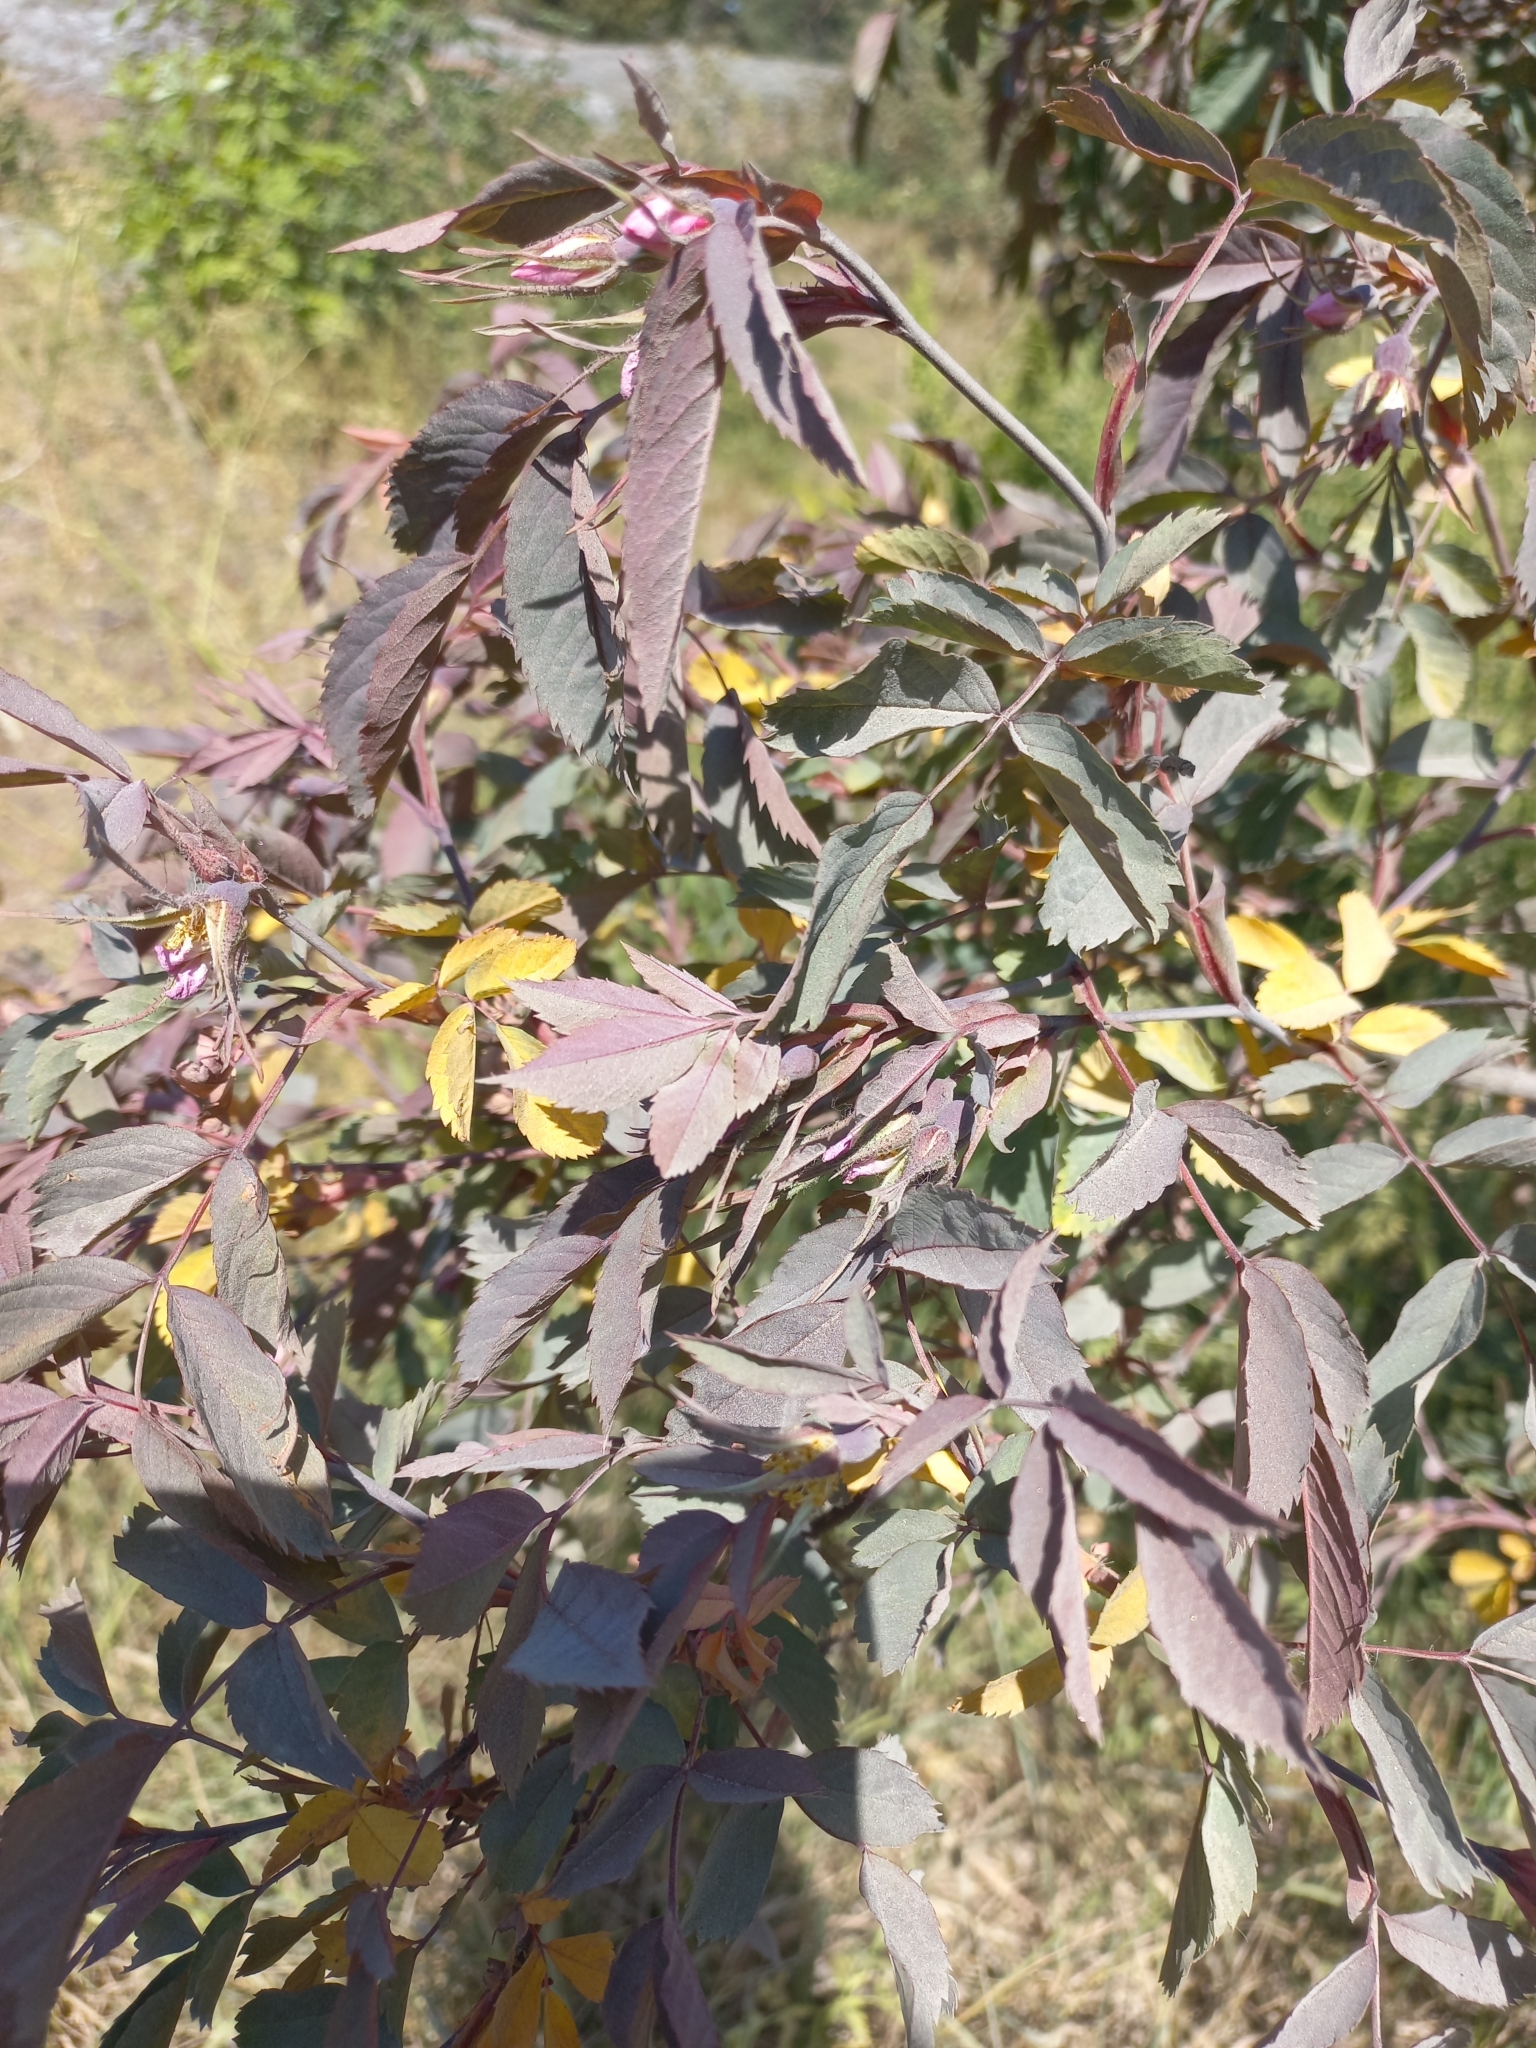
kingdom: Plantae
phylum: Tracheophyta
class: Magnoliopsida
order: Rosales
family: Rosaceae
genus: Rosa
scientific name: Rosa glauca
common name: Redleaf rose
